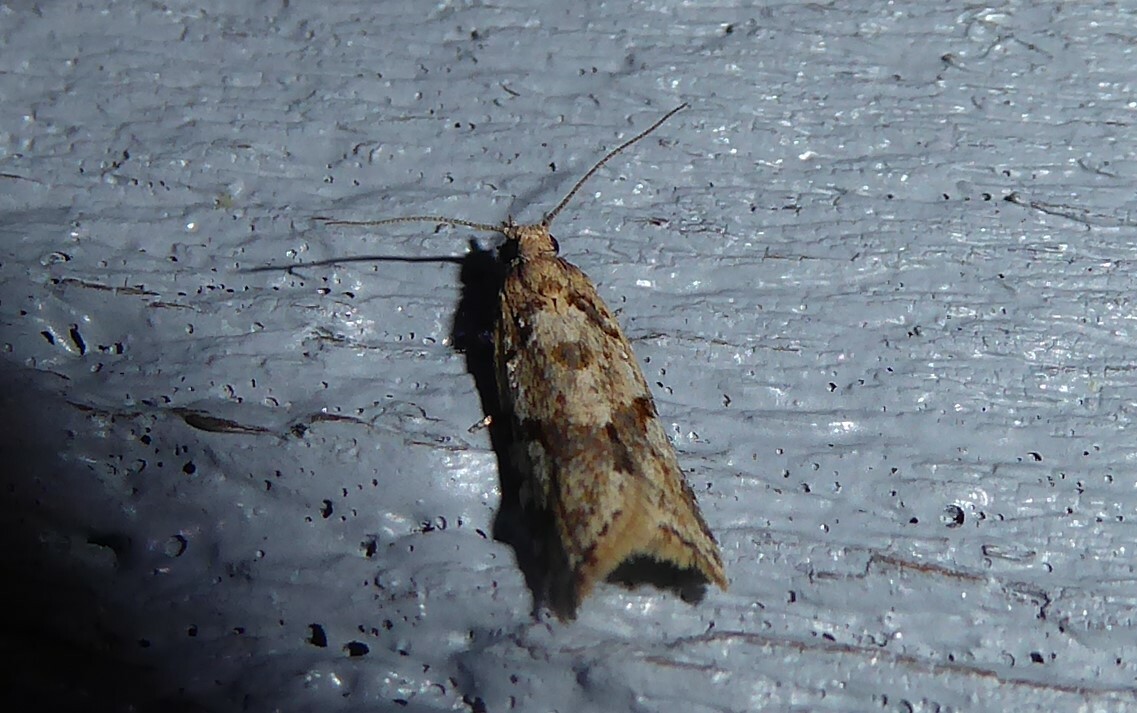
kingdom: Animalia
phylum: Arthropoda
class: Insecta
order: Lepidoptera
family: Tortricidae
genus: Capua
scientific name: Capua semiferana
